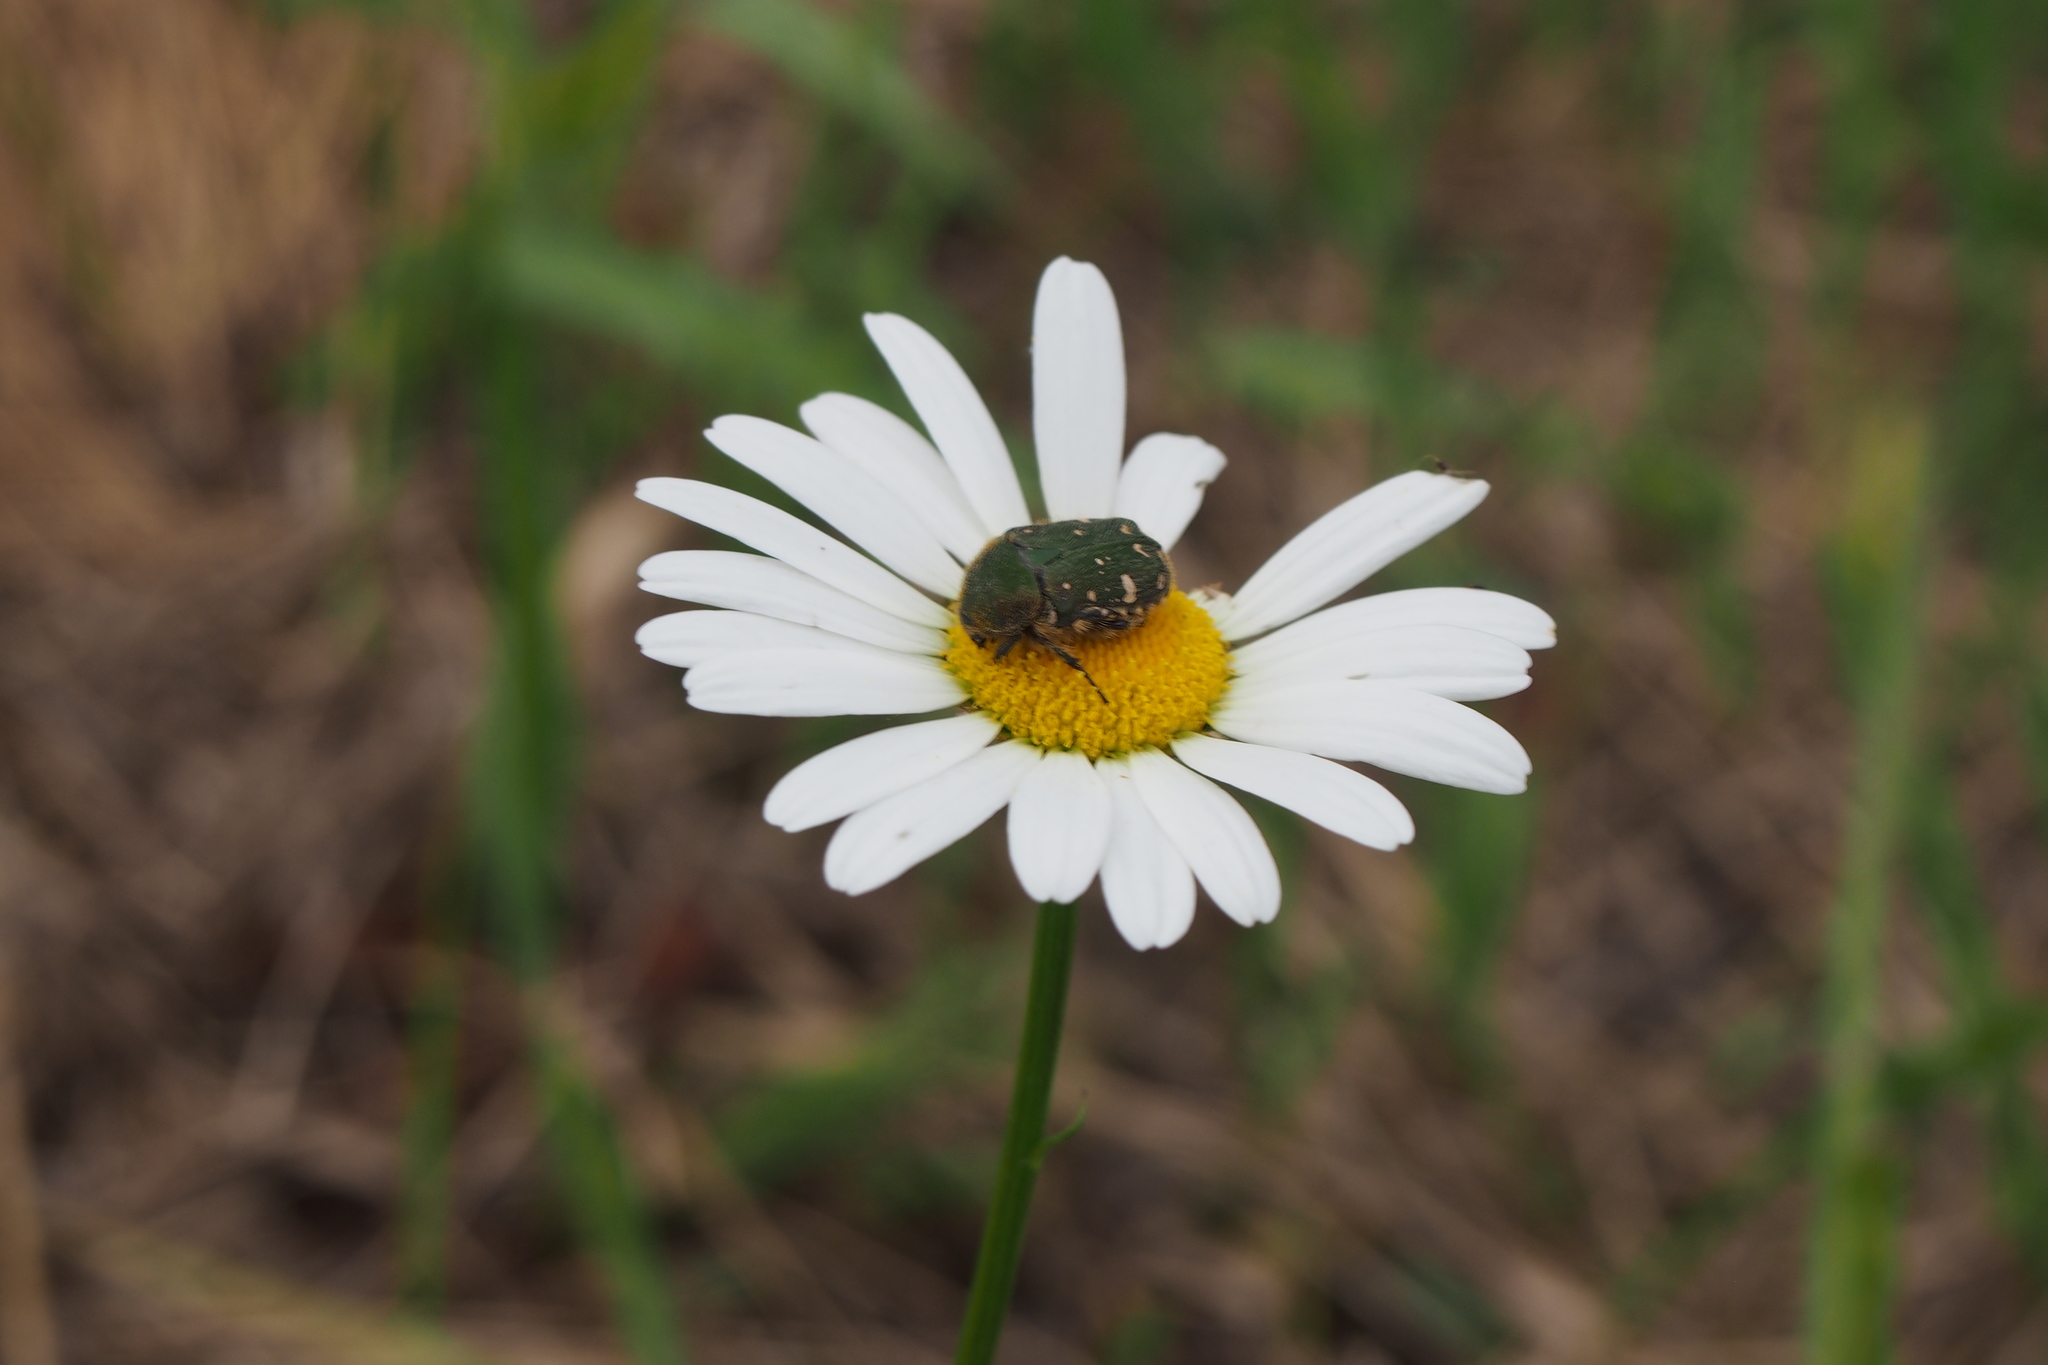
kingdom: Animalia
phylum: Arthropoda
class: Insecta
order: Coleoptera
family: Scarabaeidae
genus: Gametis
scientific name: Gametis jucunda
